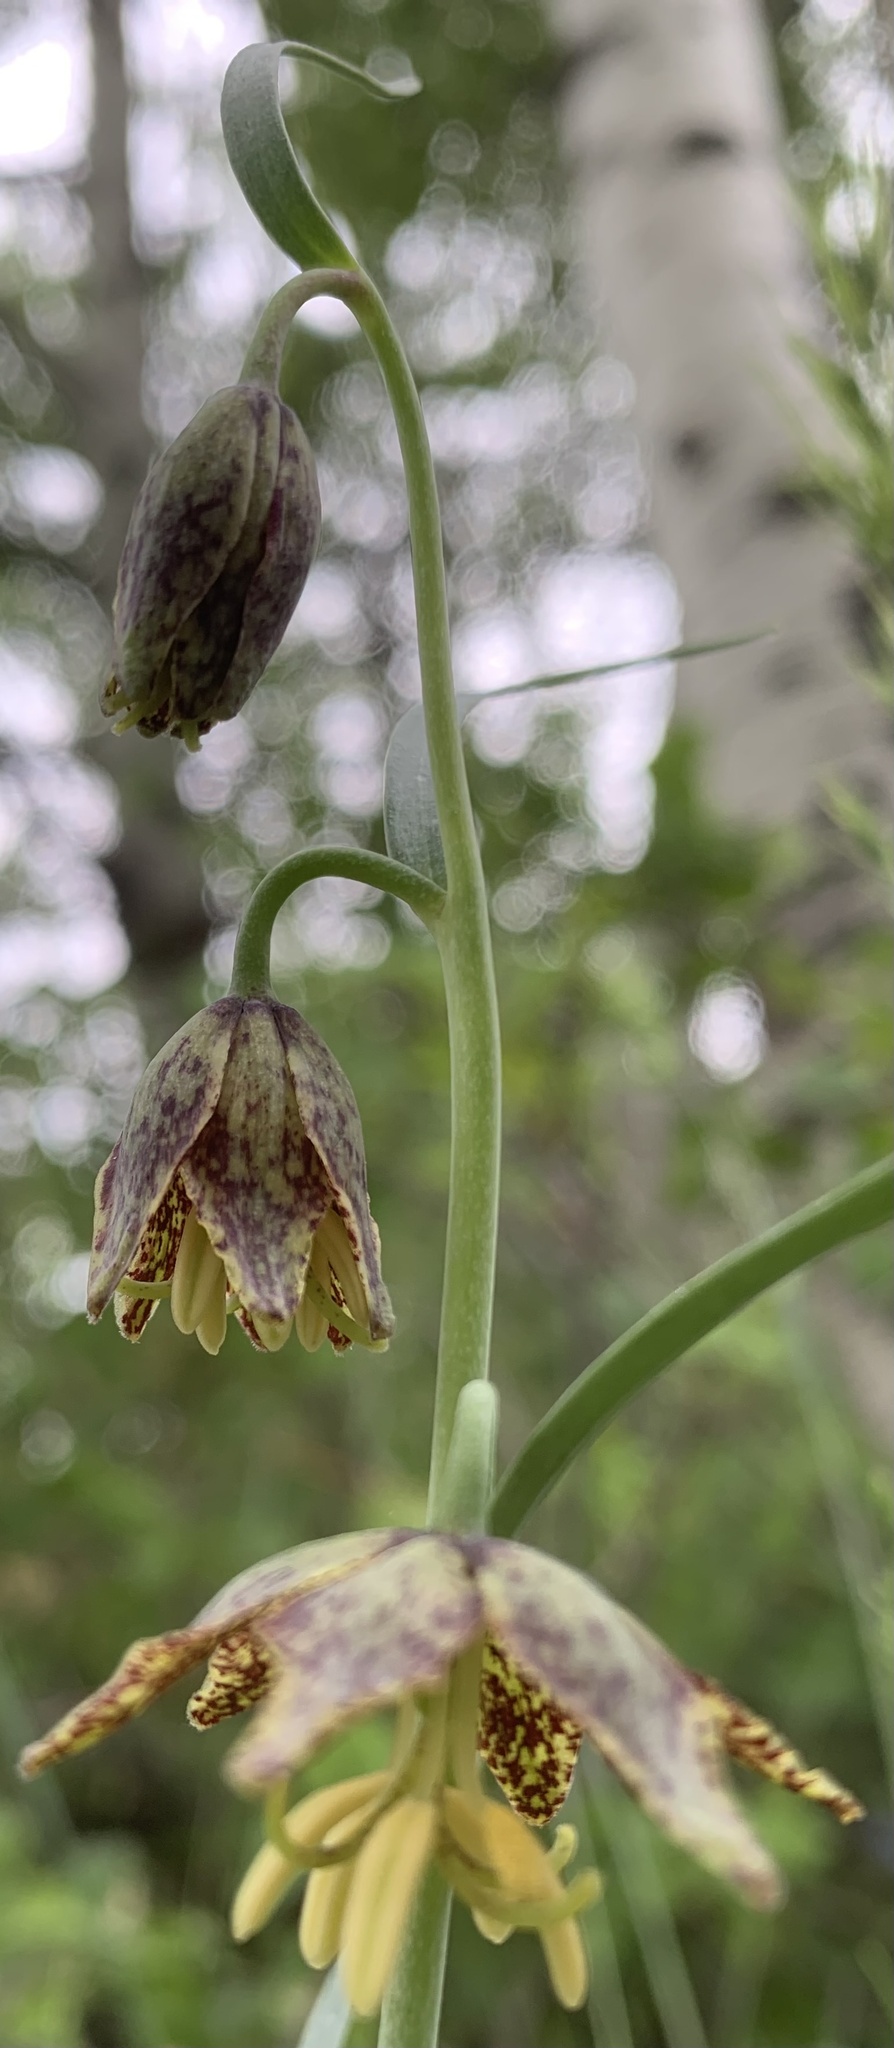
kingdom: Plantae
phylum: Tracheophyta
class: Liliopsida
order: Liliales
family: Liliaceae
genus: Fritillaria
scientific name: Fritillaria atropurpurea
